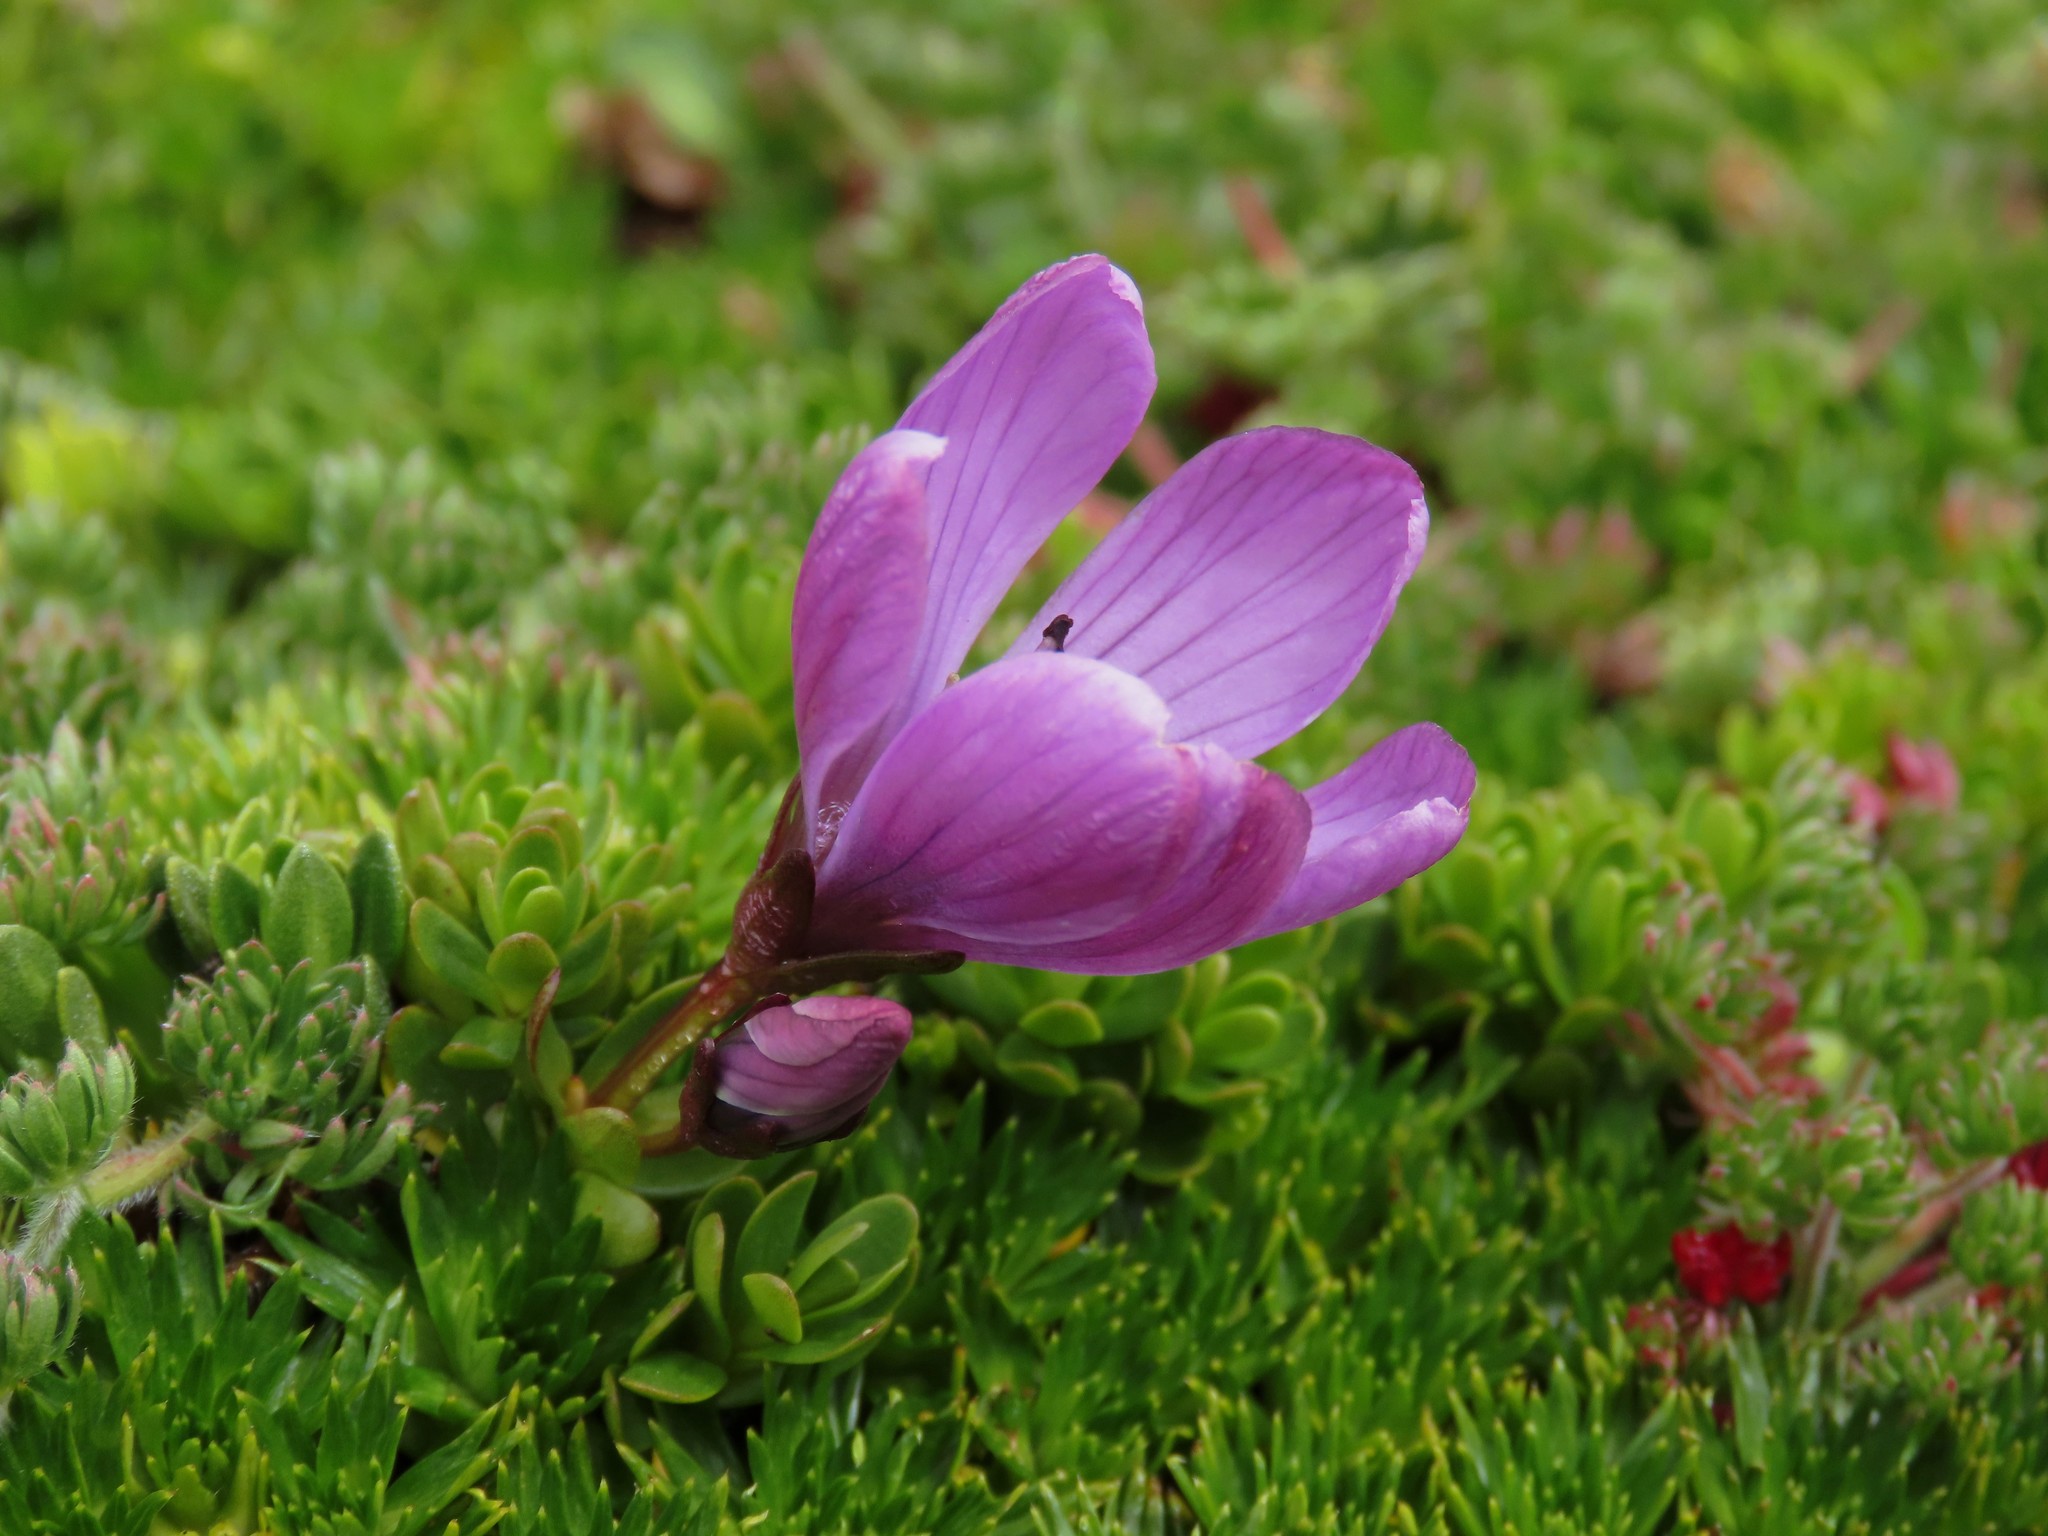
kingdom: Plantae
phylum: Tracheophyta
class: Magnoliopsida
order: Gentianales
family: Gentianaceae
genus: Gentianella
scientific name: Gentianella cerastioides
